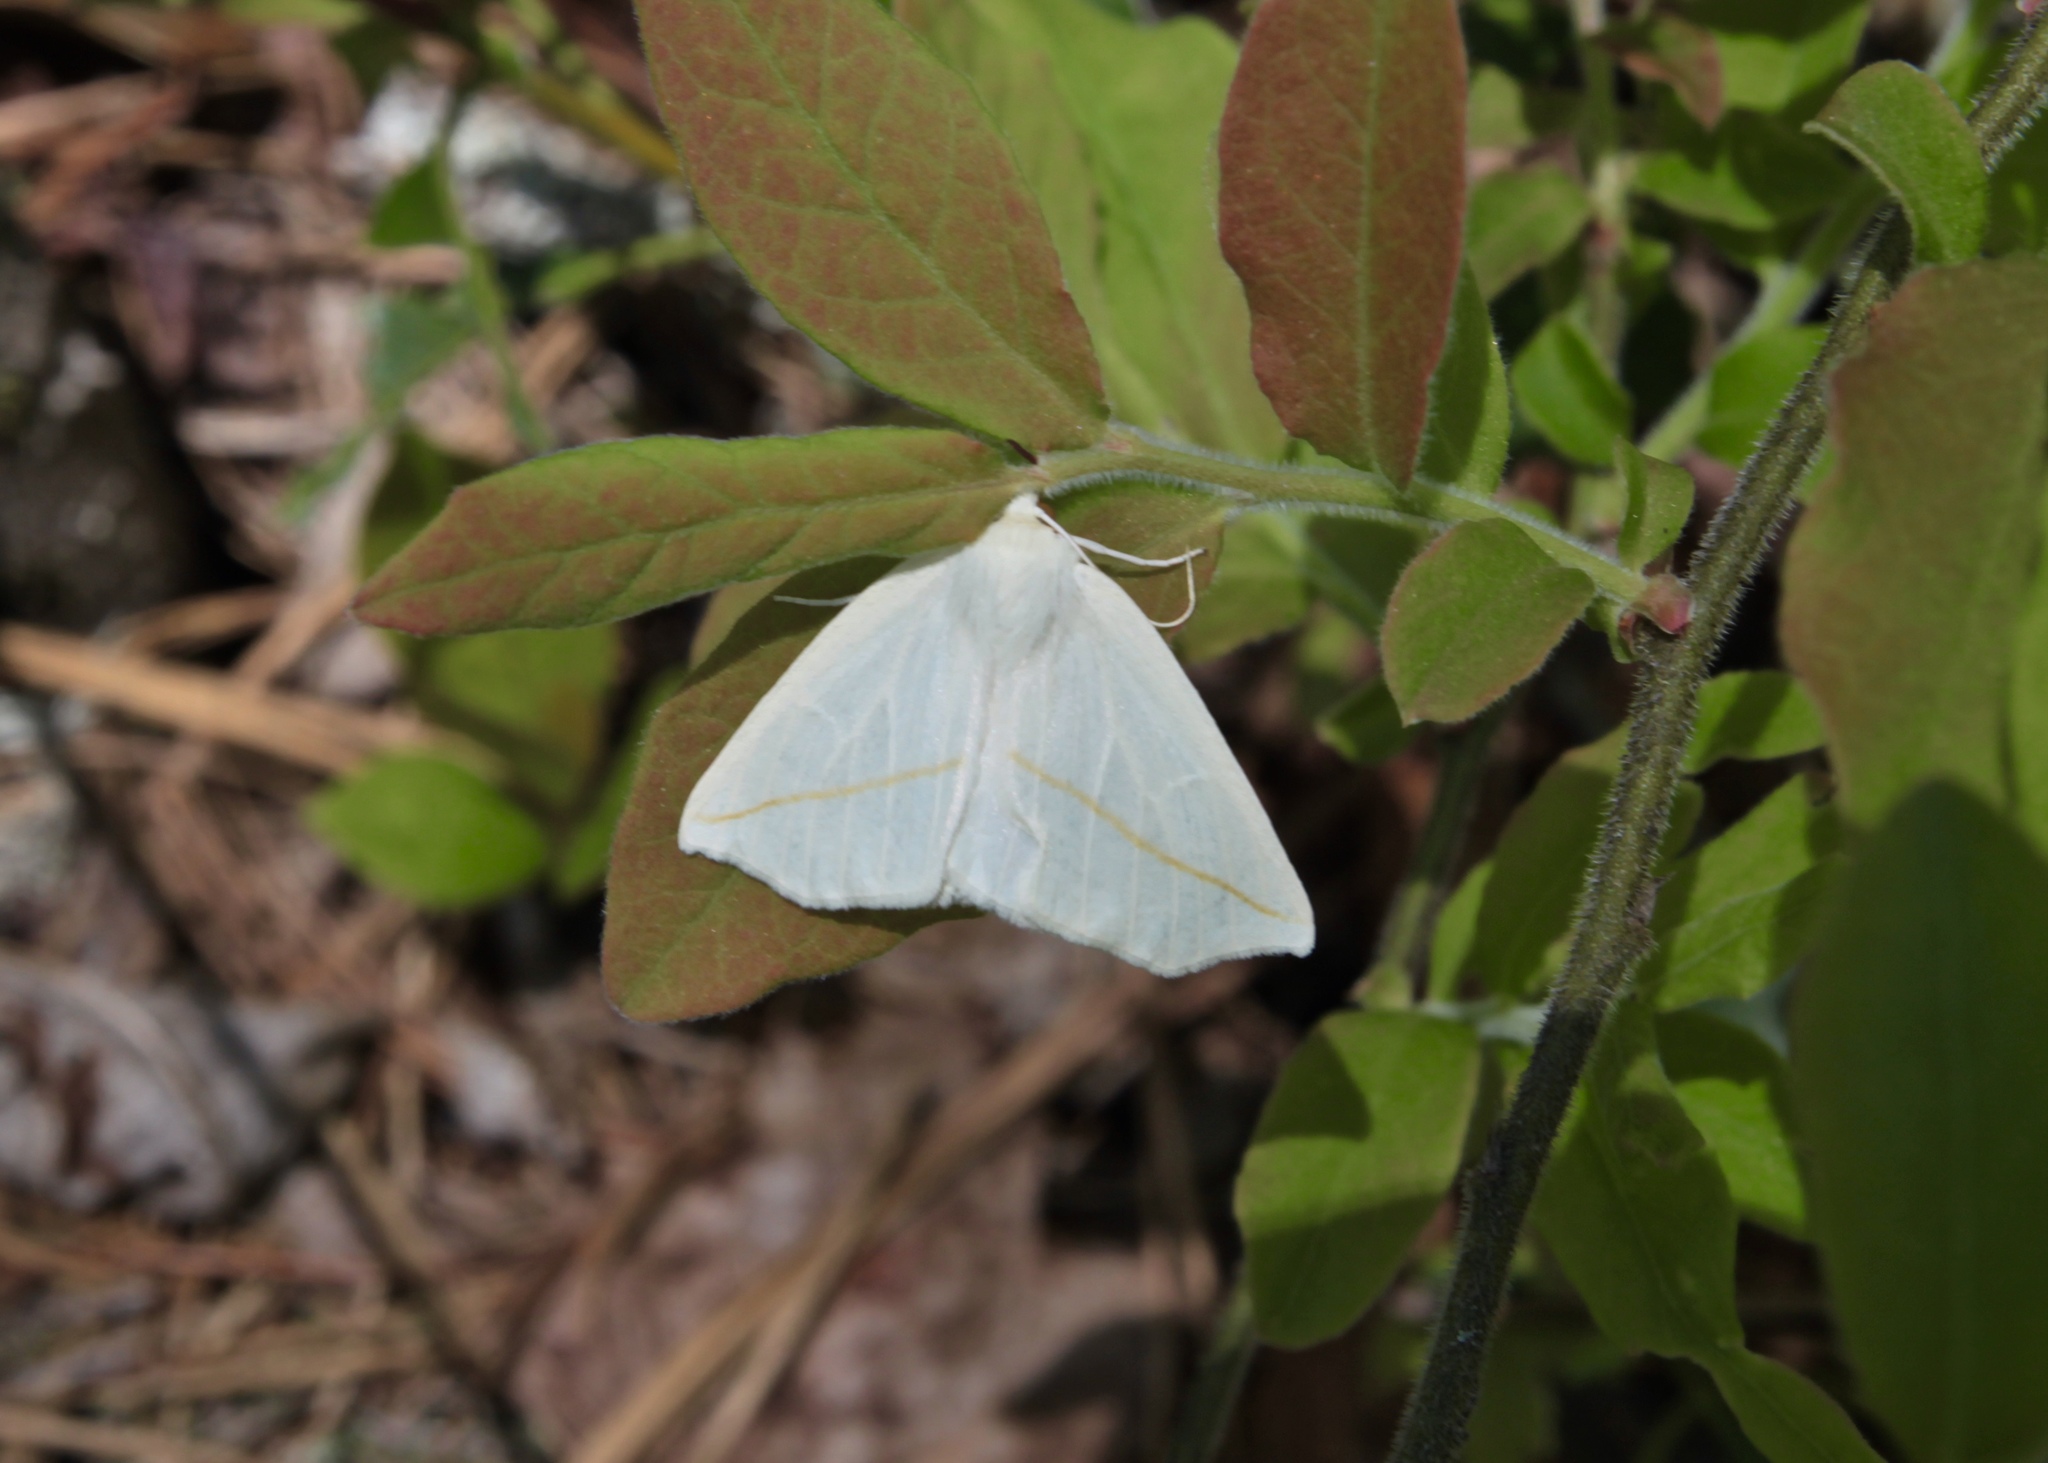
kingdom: Animalia
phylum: Arthropoda
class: Insecta
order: Lepidoptera
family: Geometridae
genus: Tetracis
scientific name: Tetracis cachexiata
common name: White slant-line
